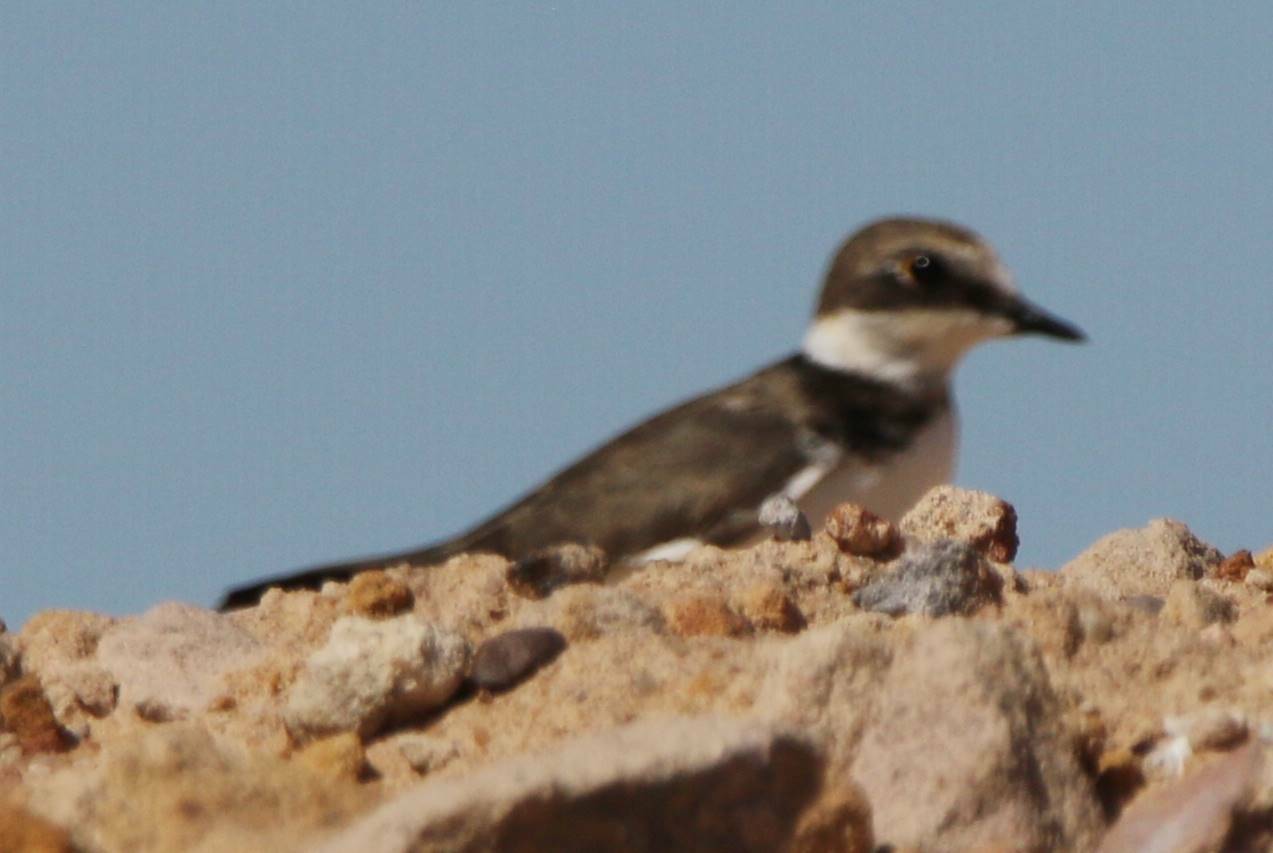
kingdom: Animalia
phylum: Chordata
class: Aves
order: Charadriiformes
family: Charadriidae
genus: Charadrius
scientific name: Charadrius dubius
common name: Little ringed plover
